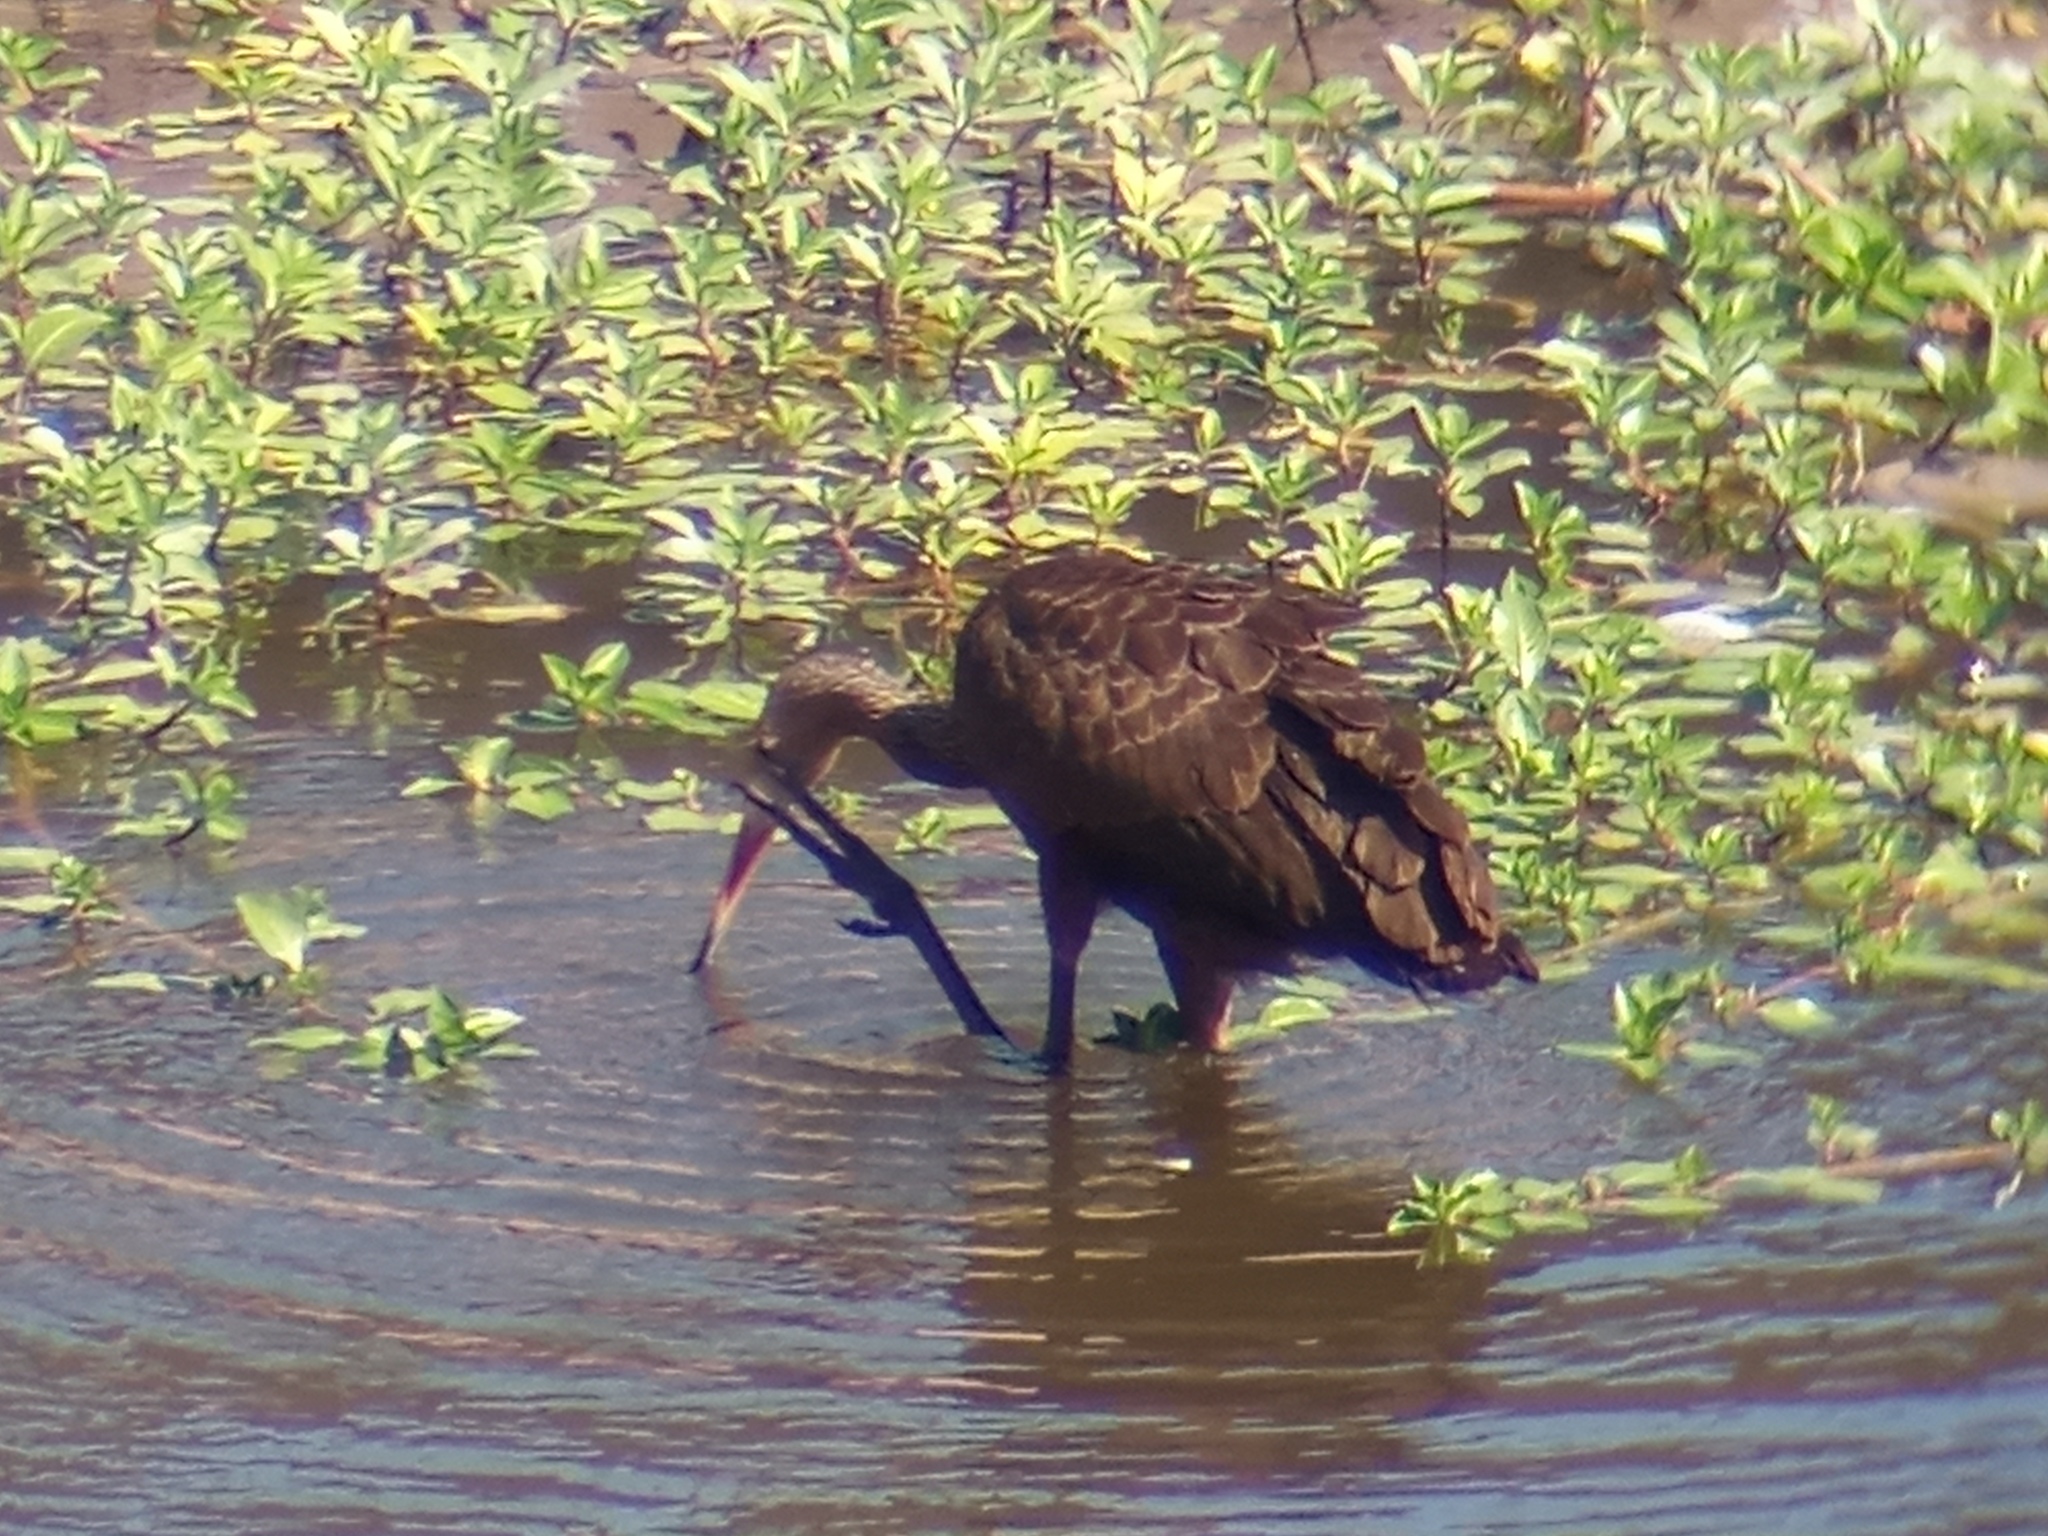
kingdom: Animalia
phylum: Chordata
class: Aves
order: Gruiformes
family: Aramidae
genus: Aramus
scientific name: Aramus guarauna
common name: Limpkin
